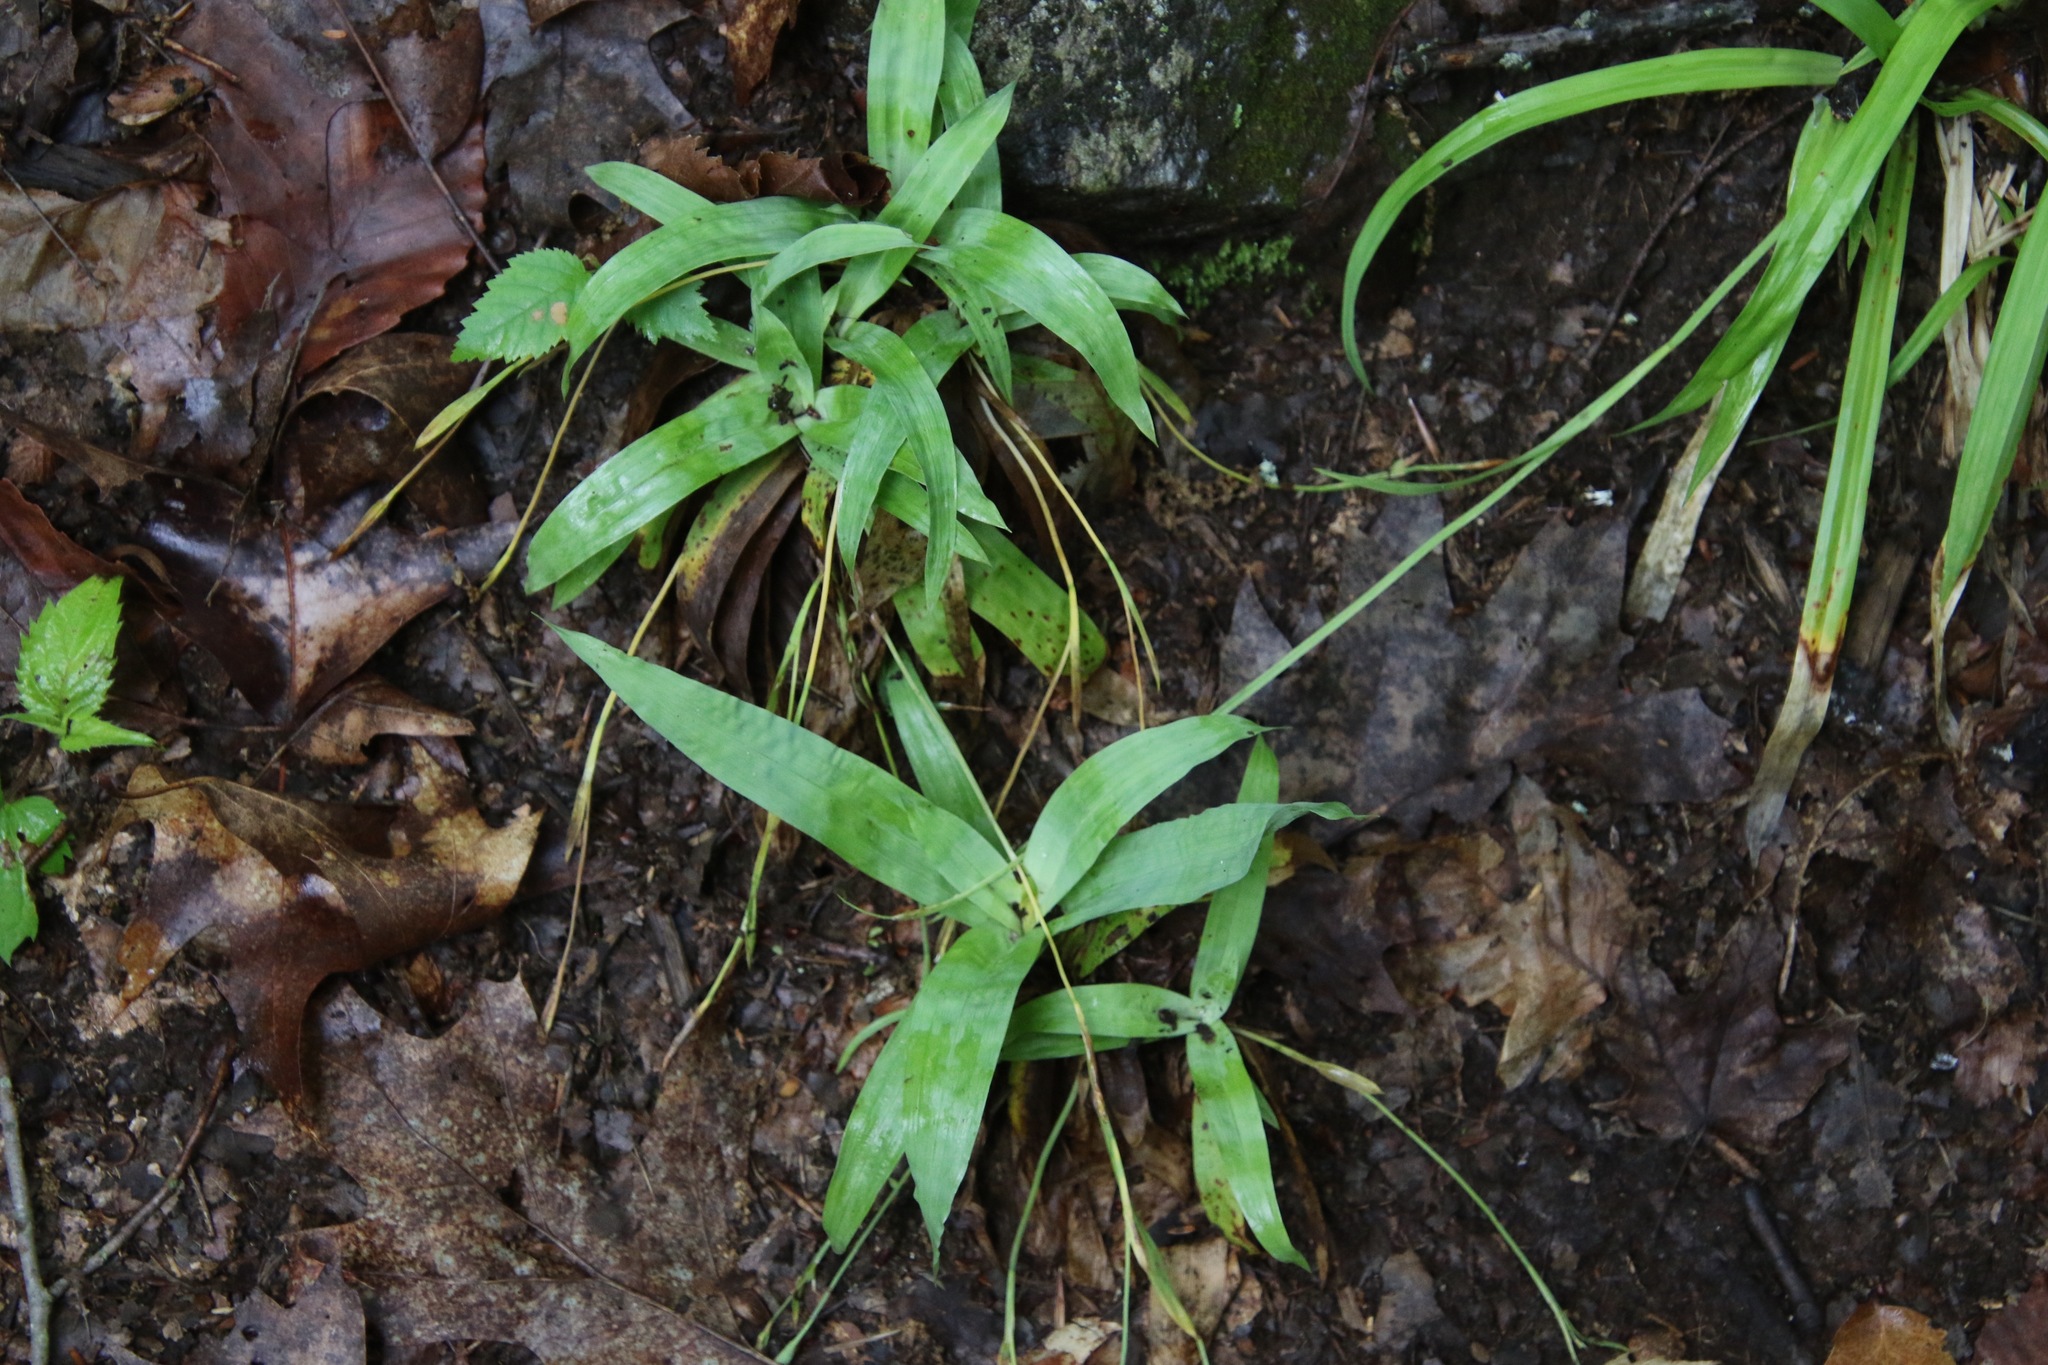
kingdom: Plantae
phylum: Tracheophyta
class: Liliopsida
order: Poales
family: Cyperaceae
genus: Carex
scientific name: Carex platyphylla
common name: Broad-leaved sedge
